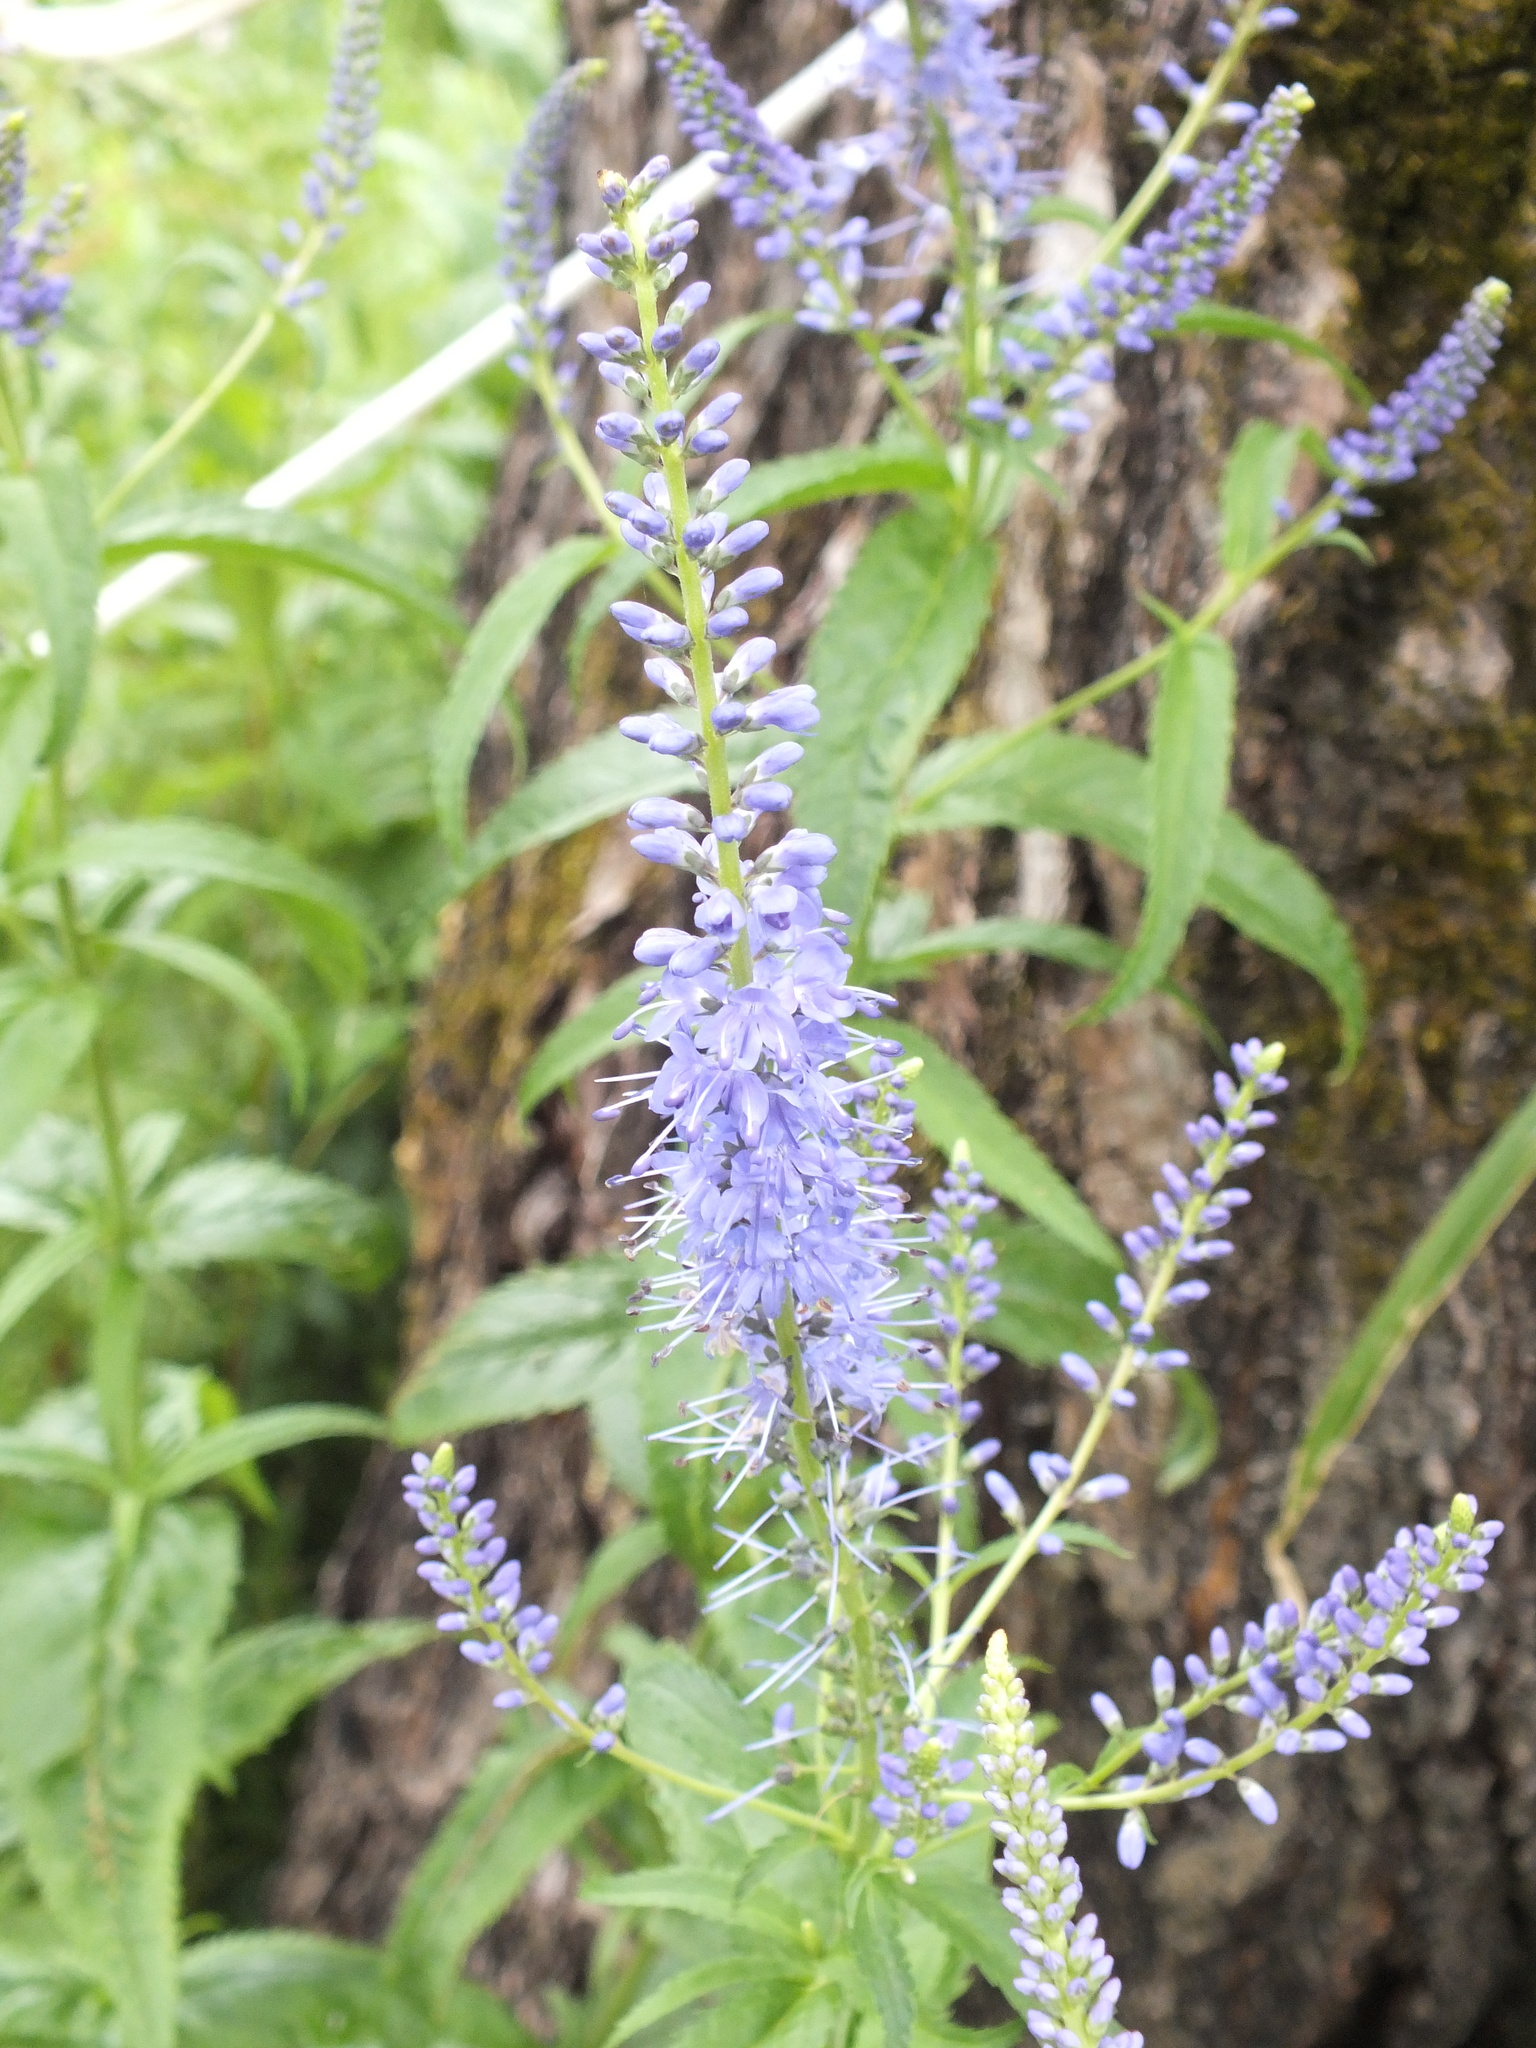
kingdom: Plantae
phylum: Tracheophyta
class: Magnoliopsida
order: Lamiales
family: Plantaginaceae
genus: Veronica
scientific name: Veronica longifolia
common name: Garden speedwell
